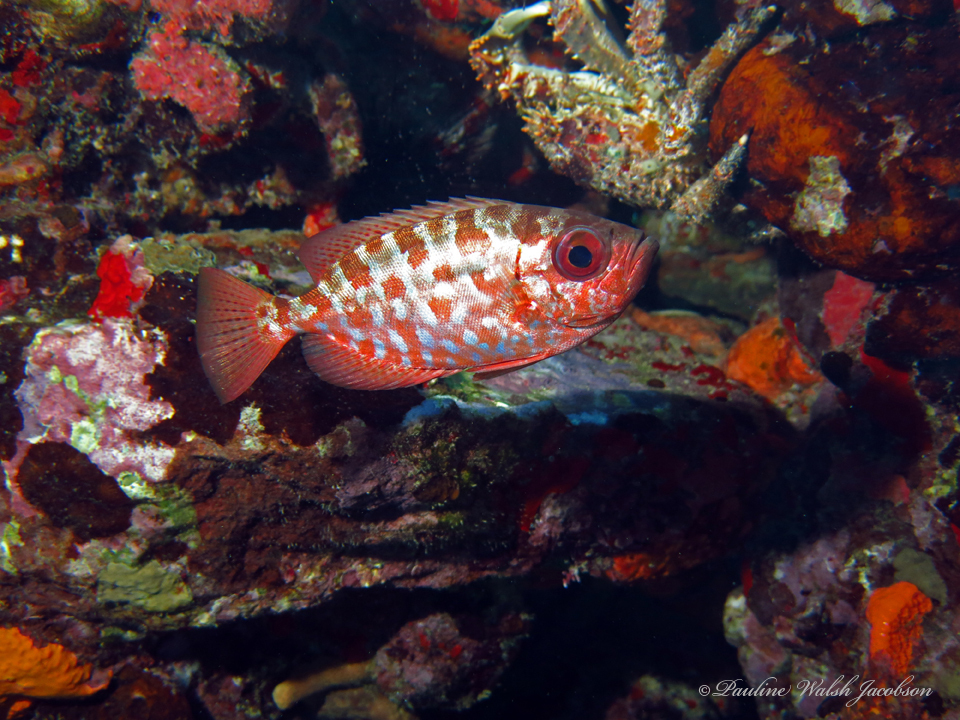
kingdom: Animalia
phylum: Chordata
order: Perciformes
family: Priacanthidae
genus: Heteropriacanthus
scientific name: Heteropriacanthus cruentatus
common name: Glasseye
